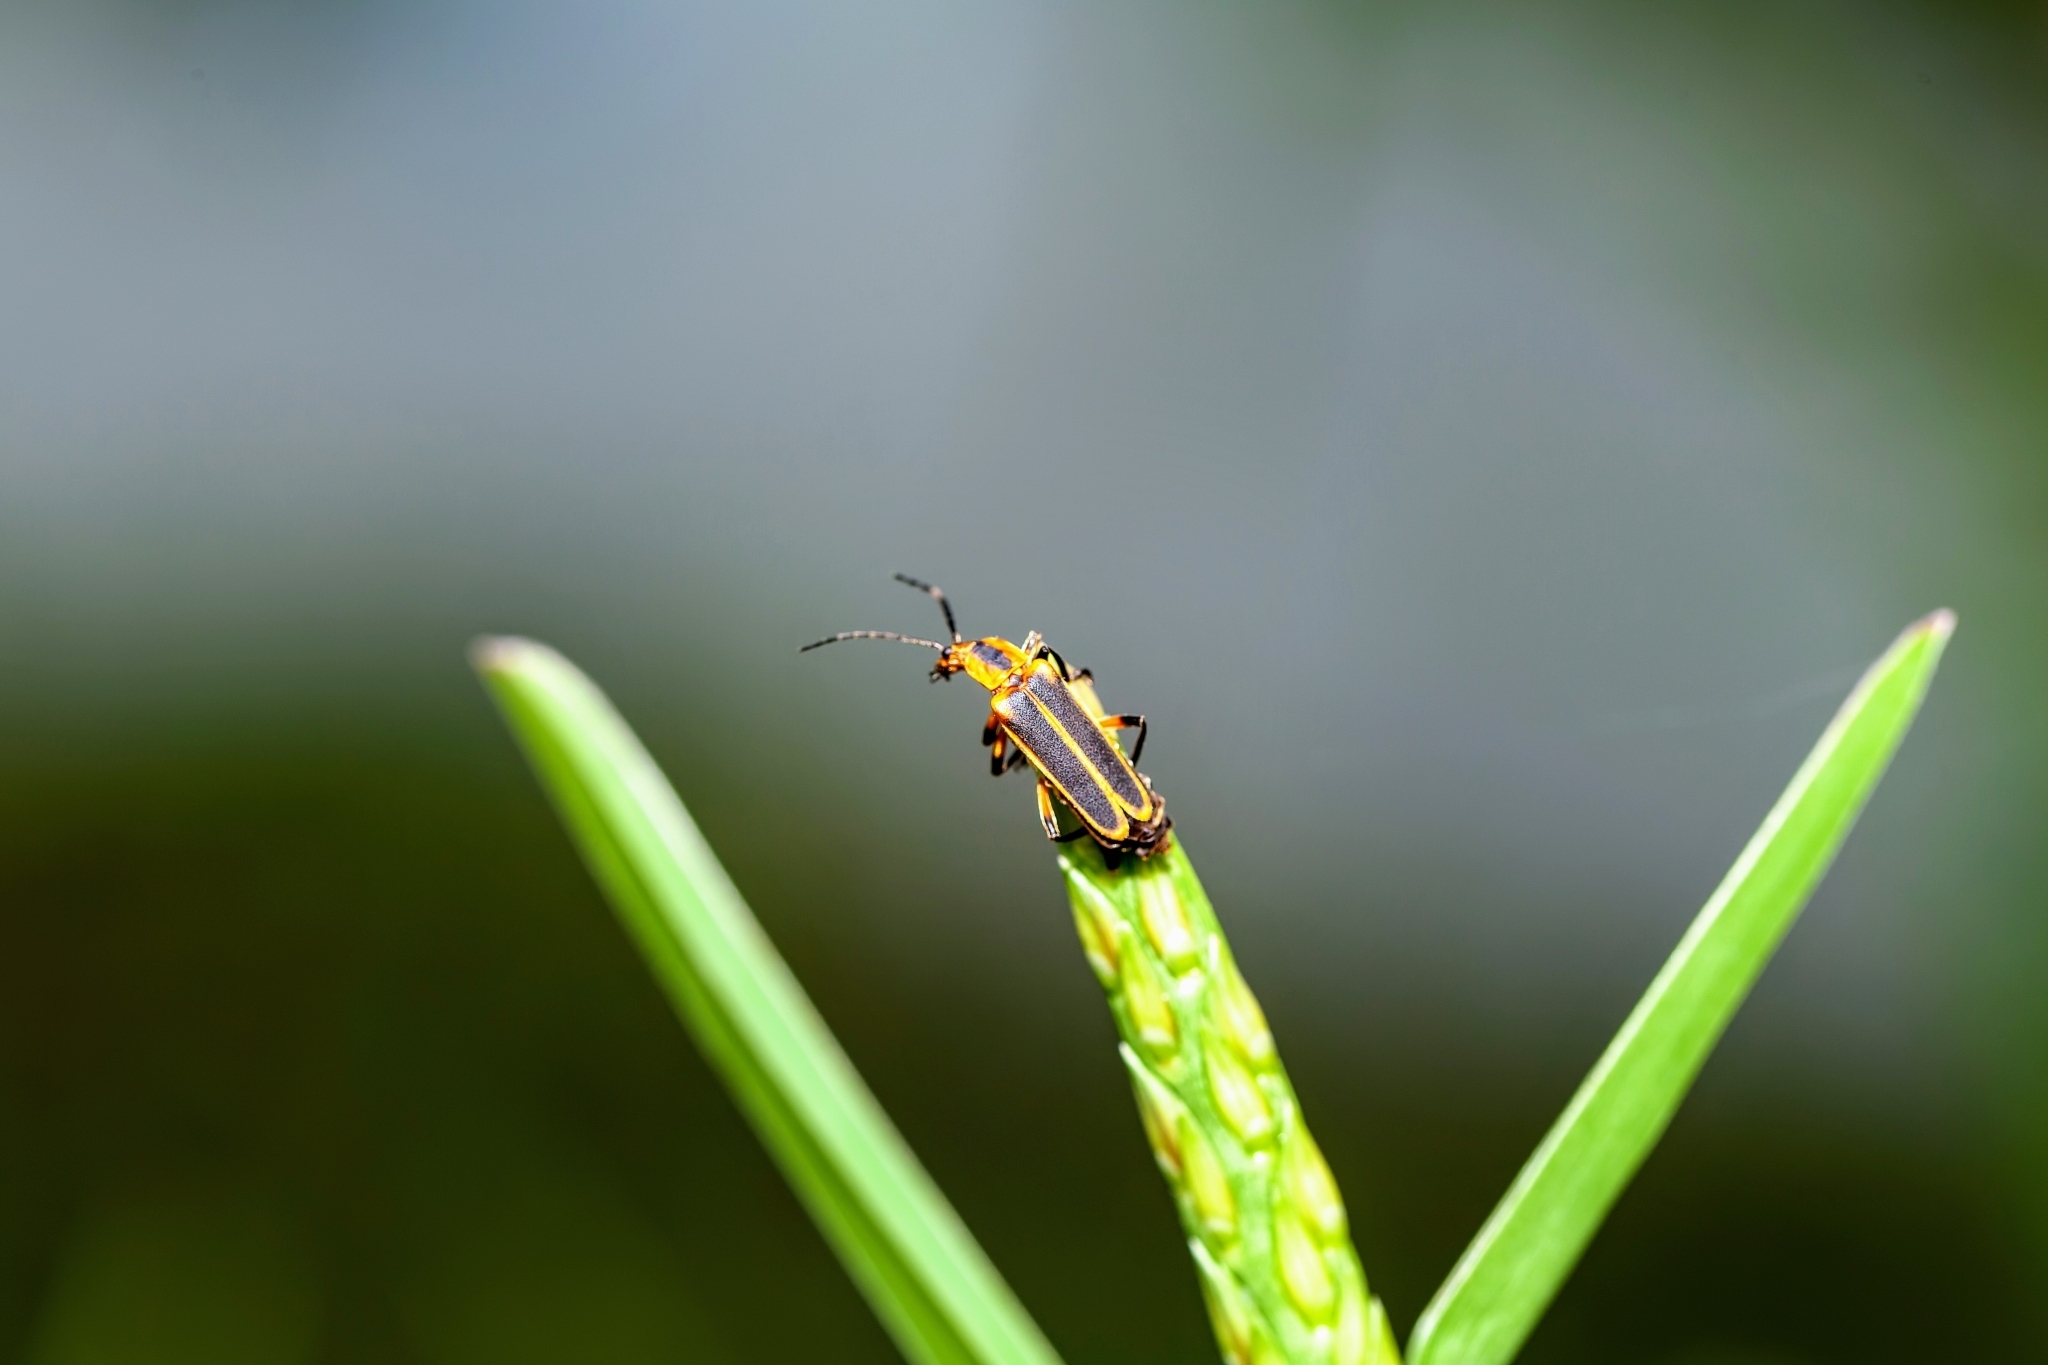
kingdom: Animalia
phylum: Arthropoda
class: Insecta
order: Coleoptera
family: Cantharidae
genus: Chauliognathus
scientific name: Chauliognathus marginatus
